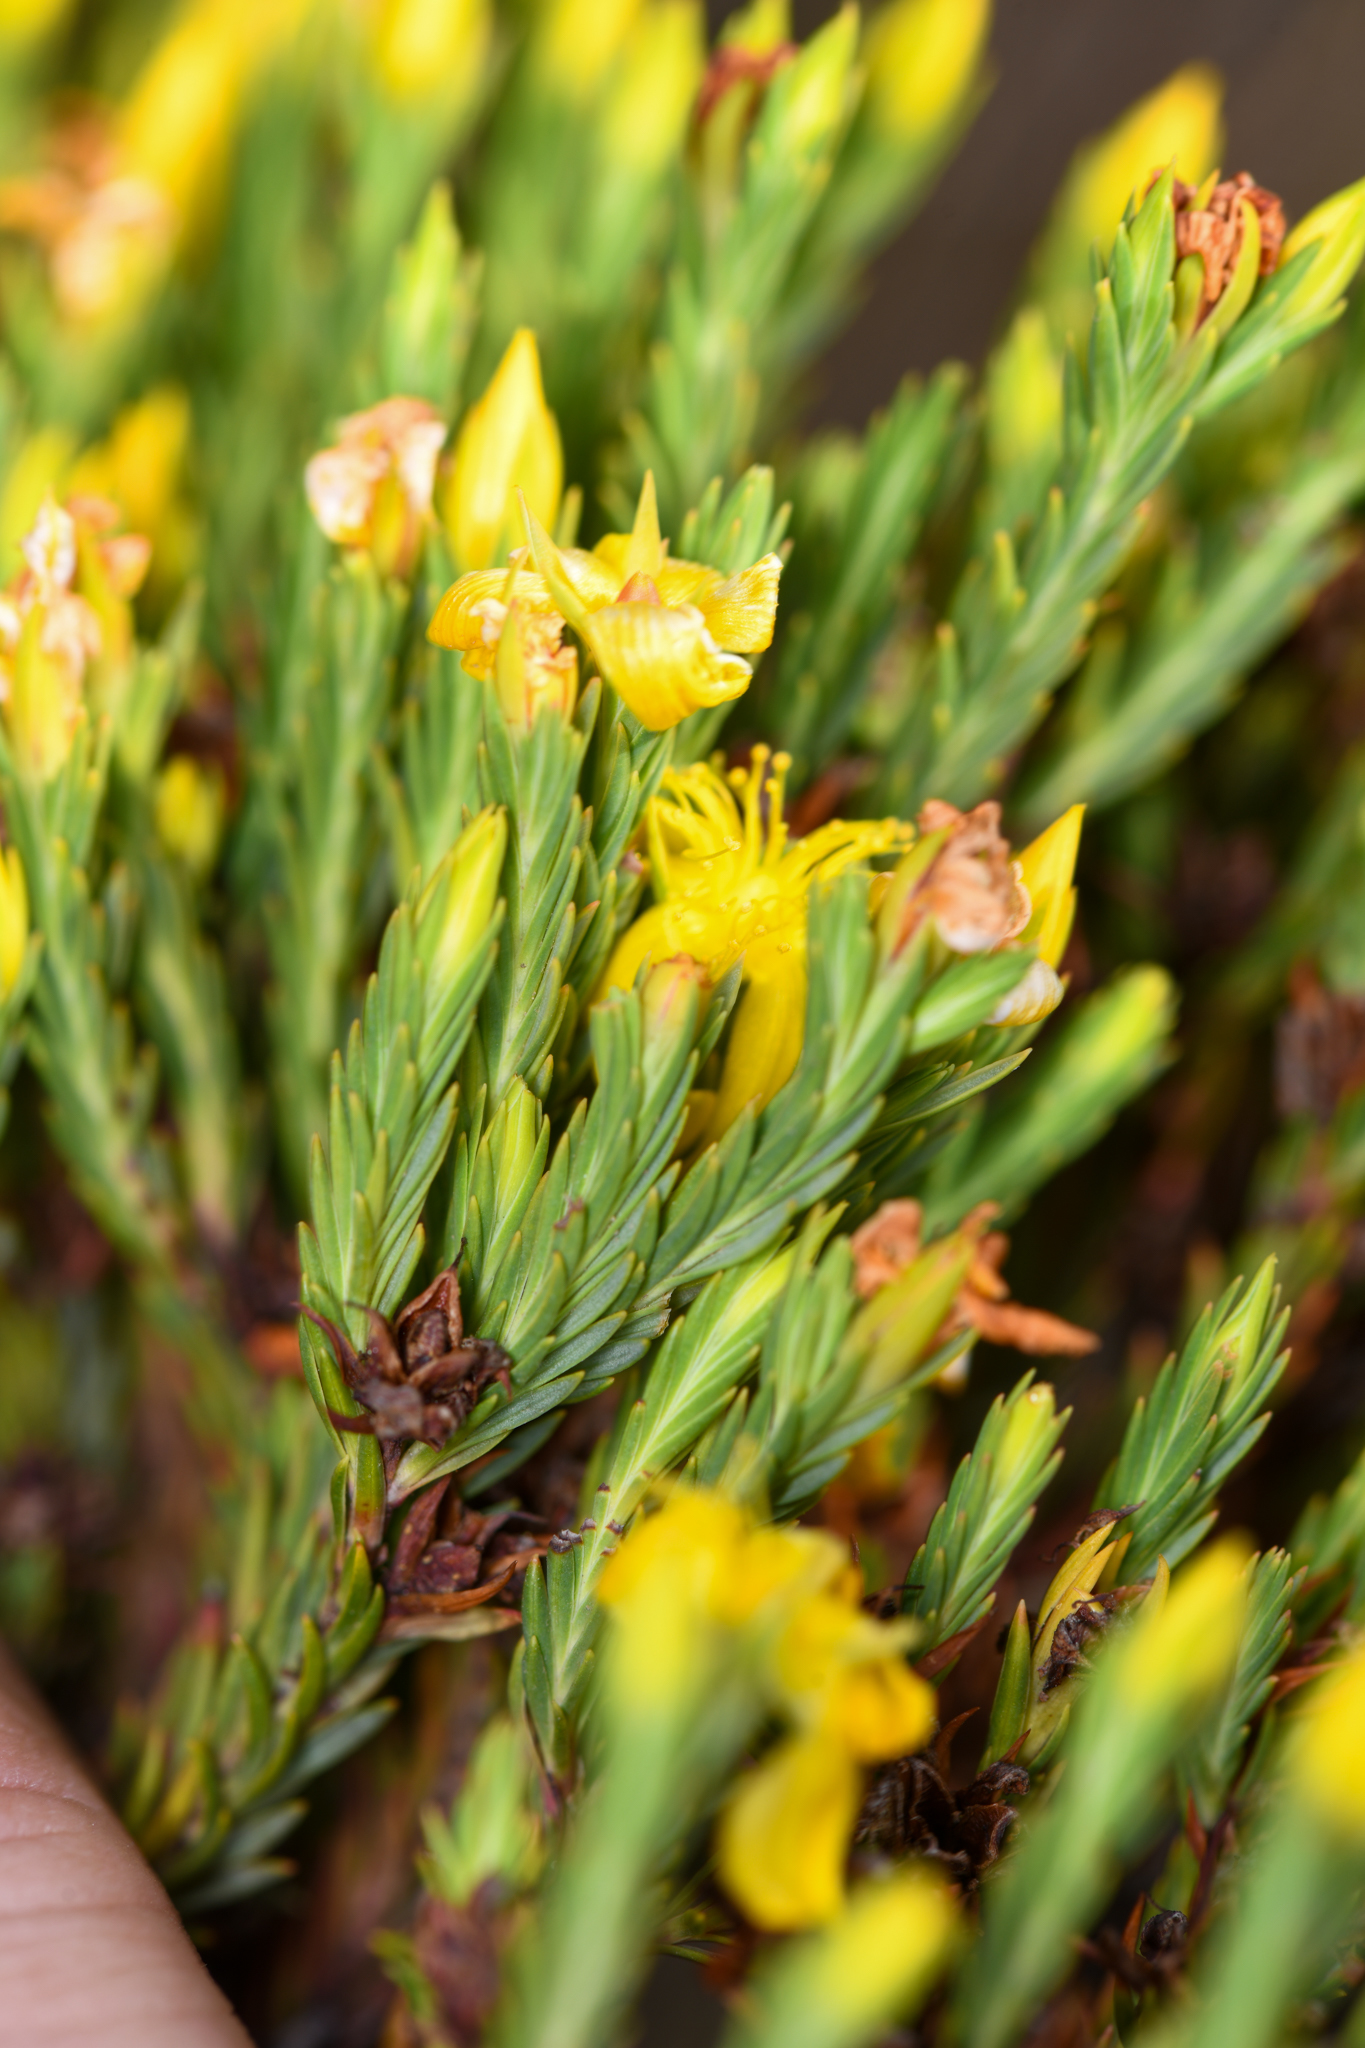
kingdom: Plantae
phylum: Tracheophyta
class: Magnoliopsida
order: Malpighiales
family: Hypericaceae
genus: Hypericum
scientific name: Hypericum costaricense
